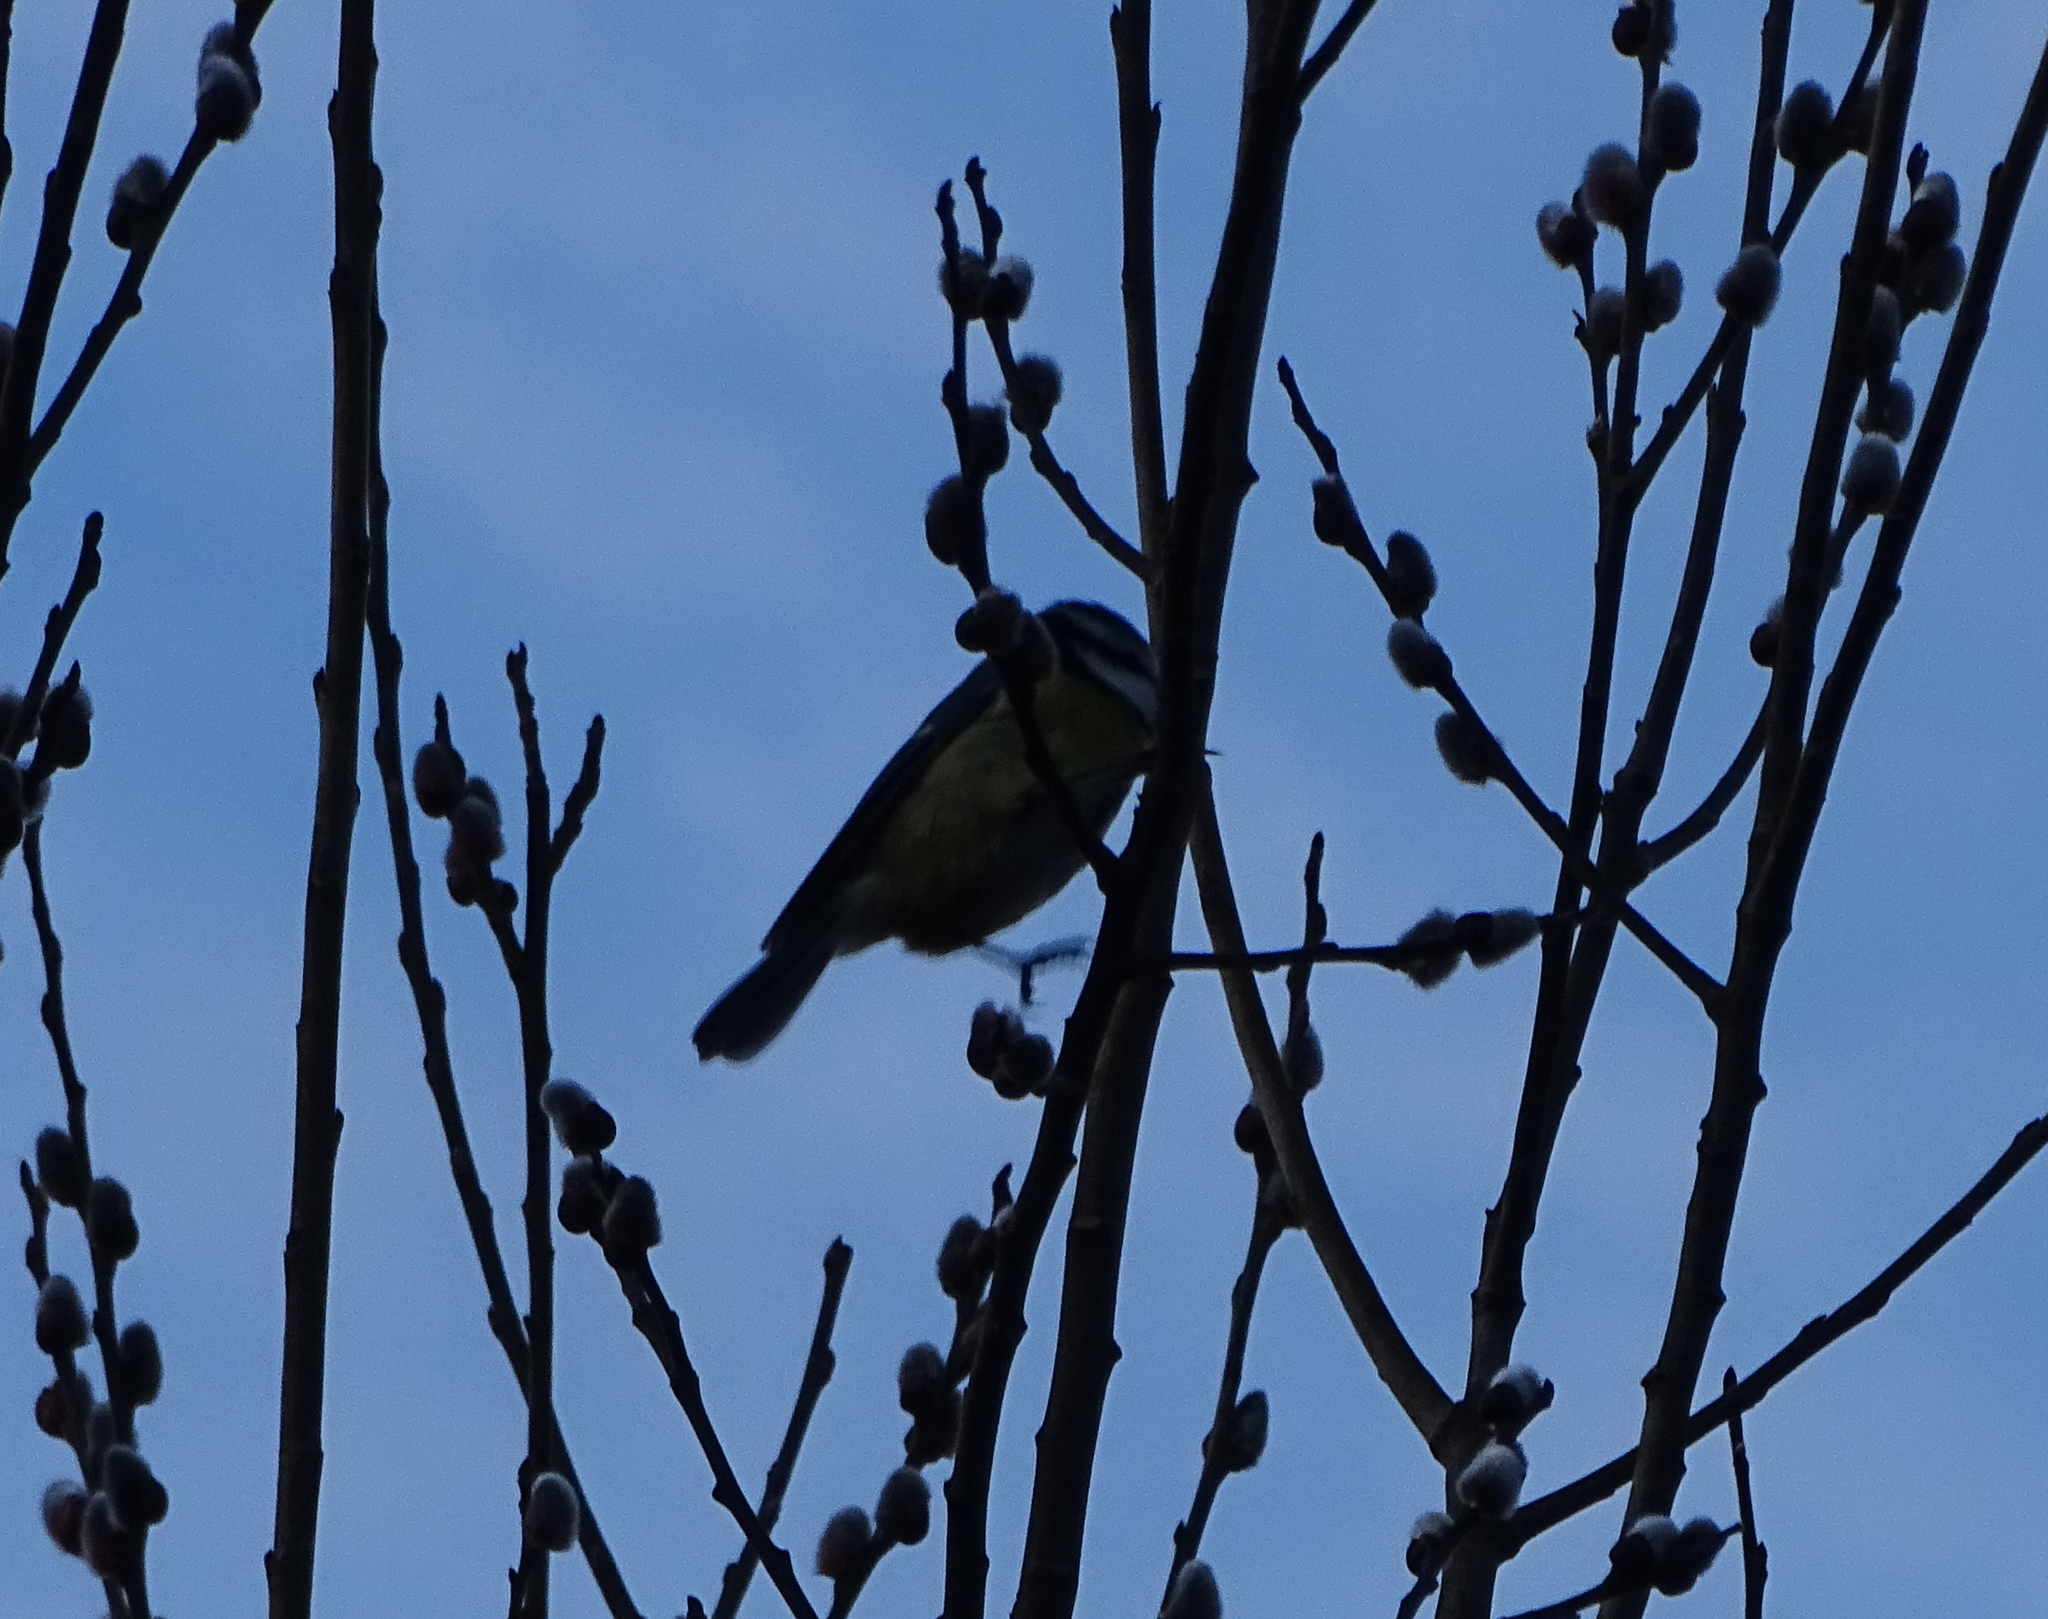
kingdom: Animalia
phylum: Chordata
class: Aves
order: Passeriformes
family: Paridae
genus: Cyanistes
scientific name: Cyanistes caeruleus
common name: Eurasian blue tit
